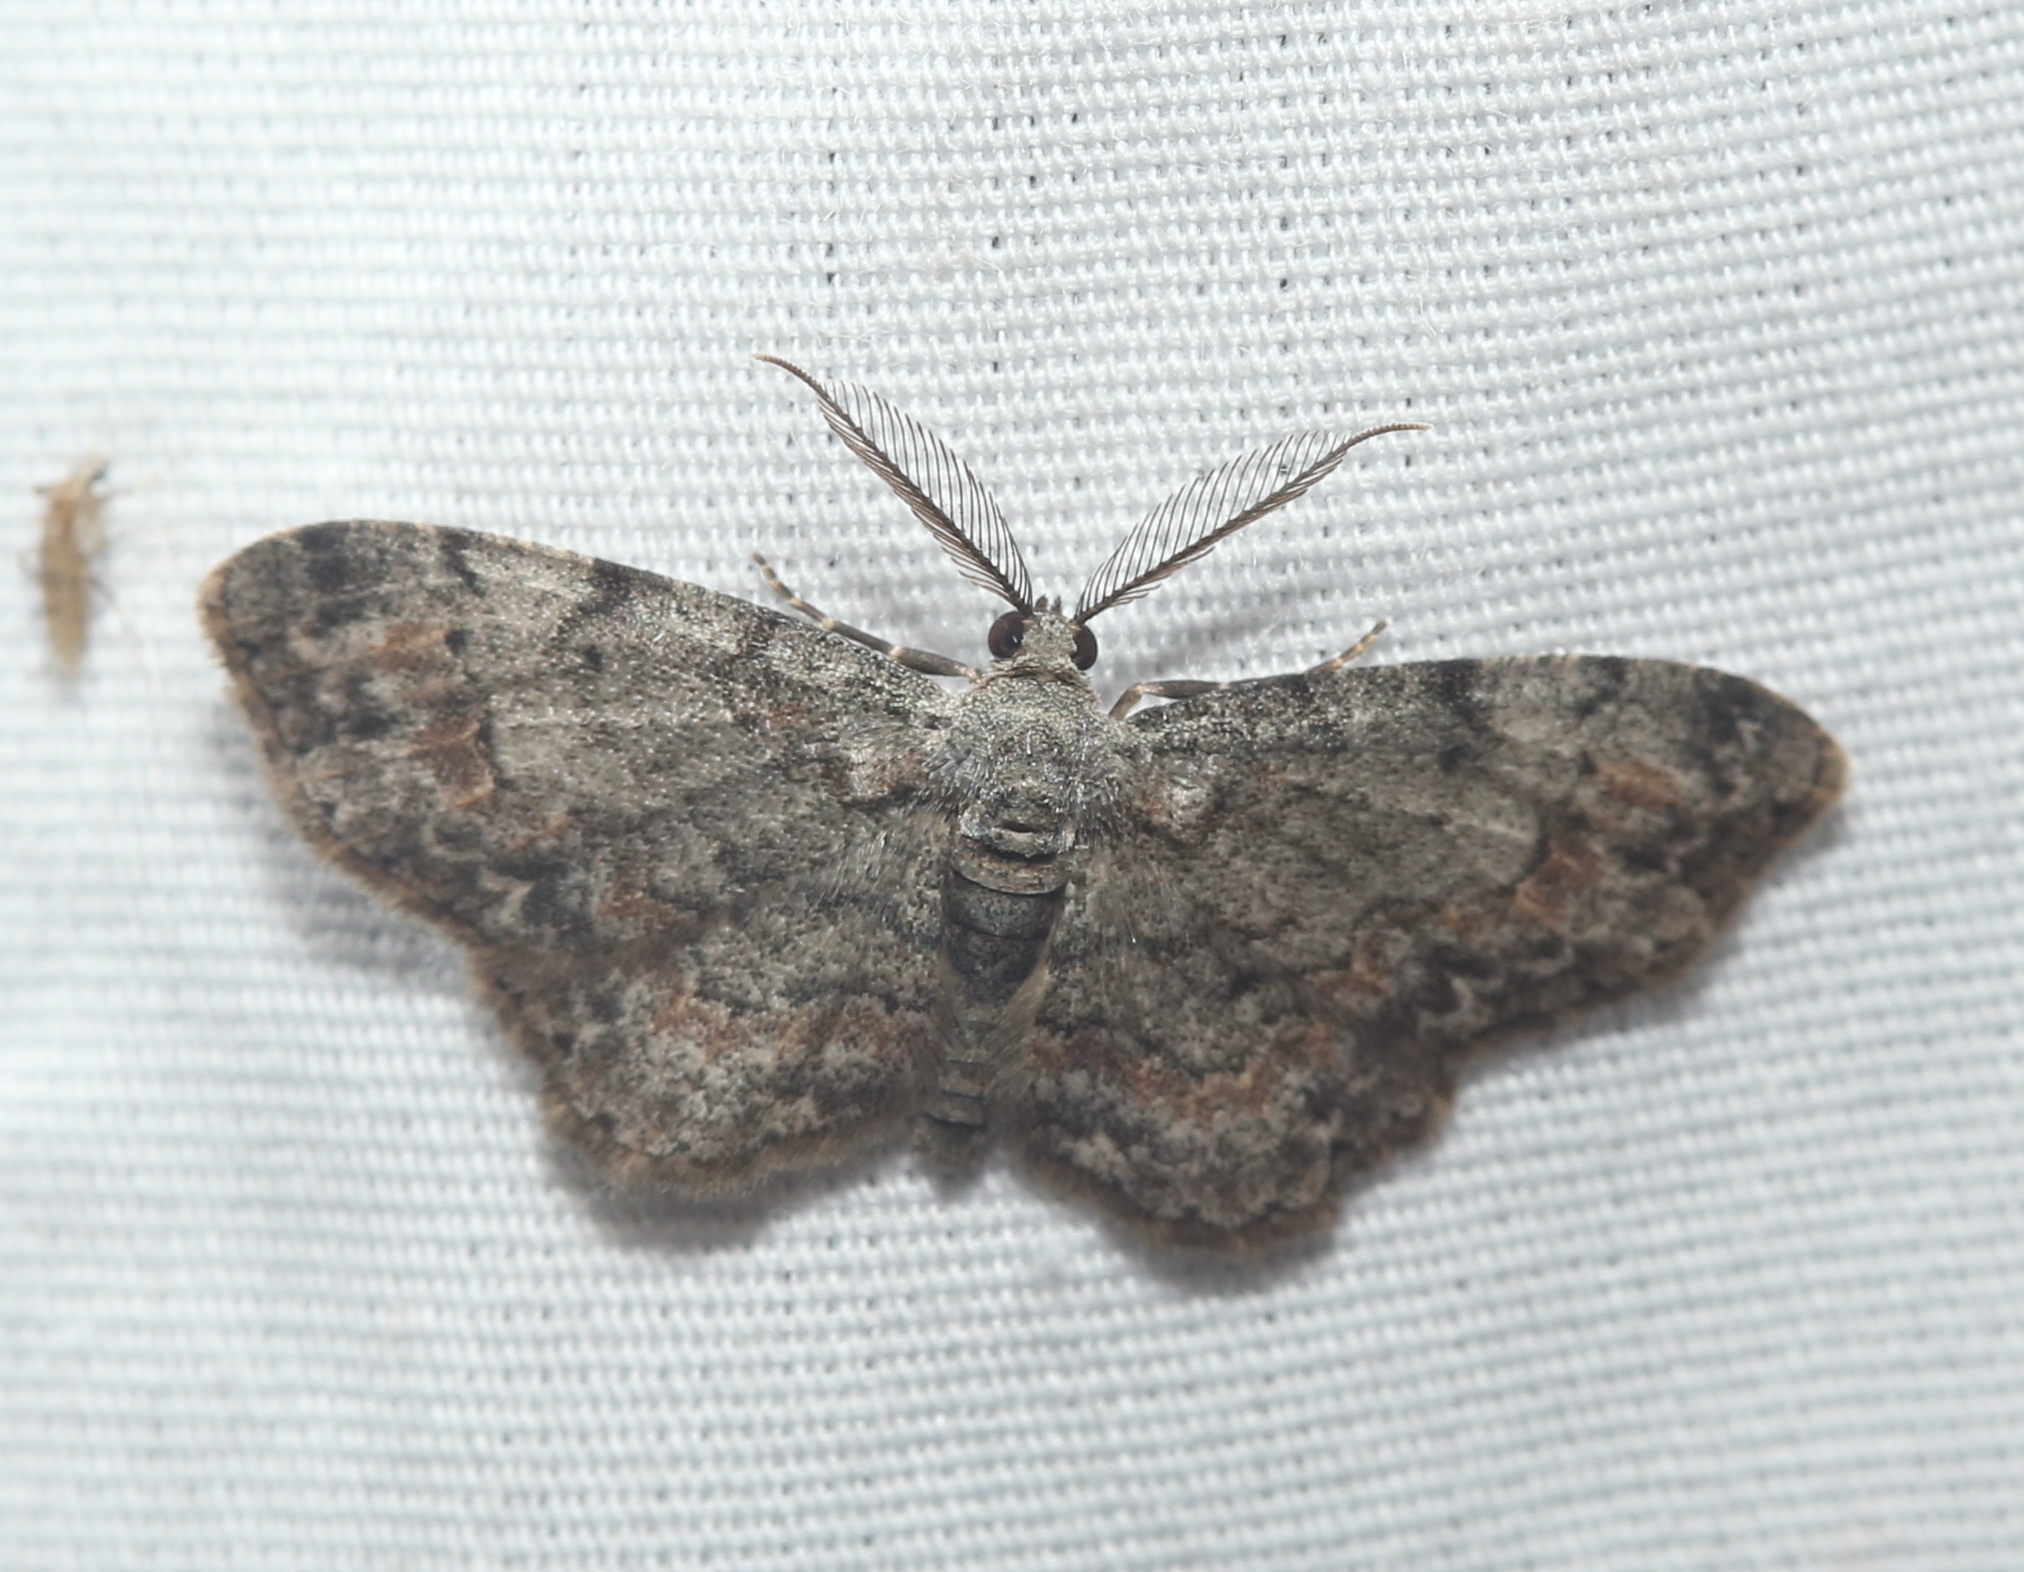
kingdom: Animalia
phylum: Arthropoda
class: Insecta
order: Lepidoptera
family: Geometridae
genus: Glenoides
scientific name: Glenoides texanaria
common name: Texas gray
